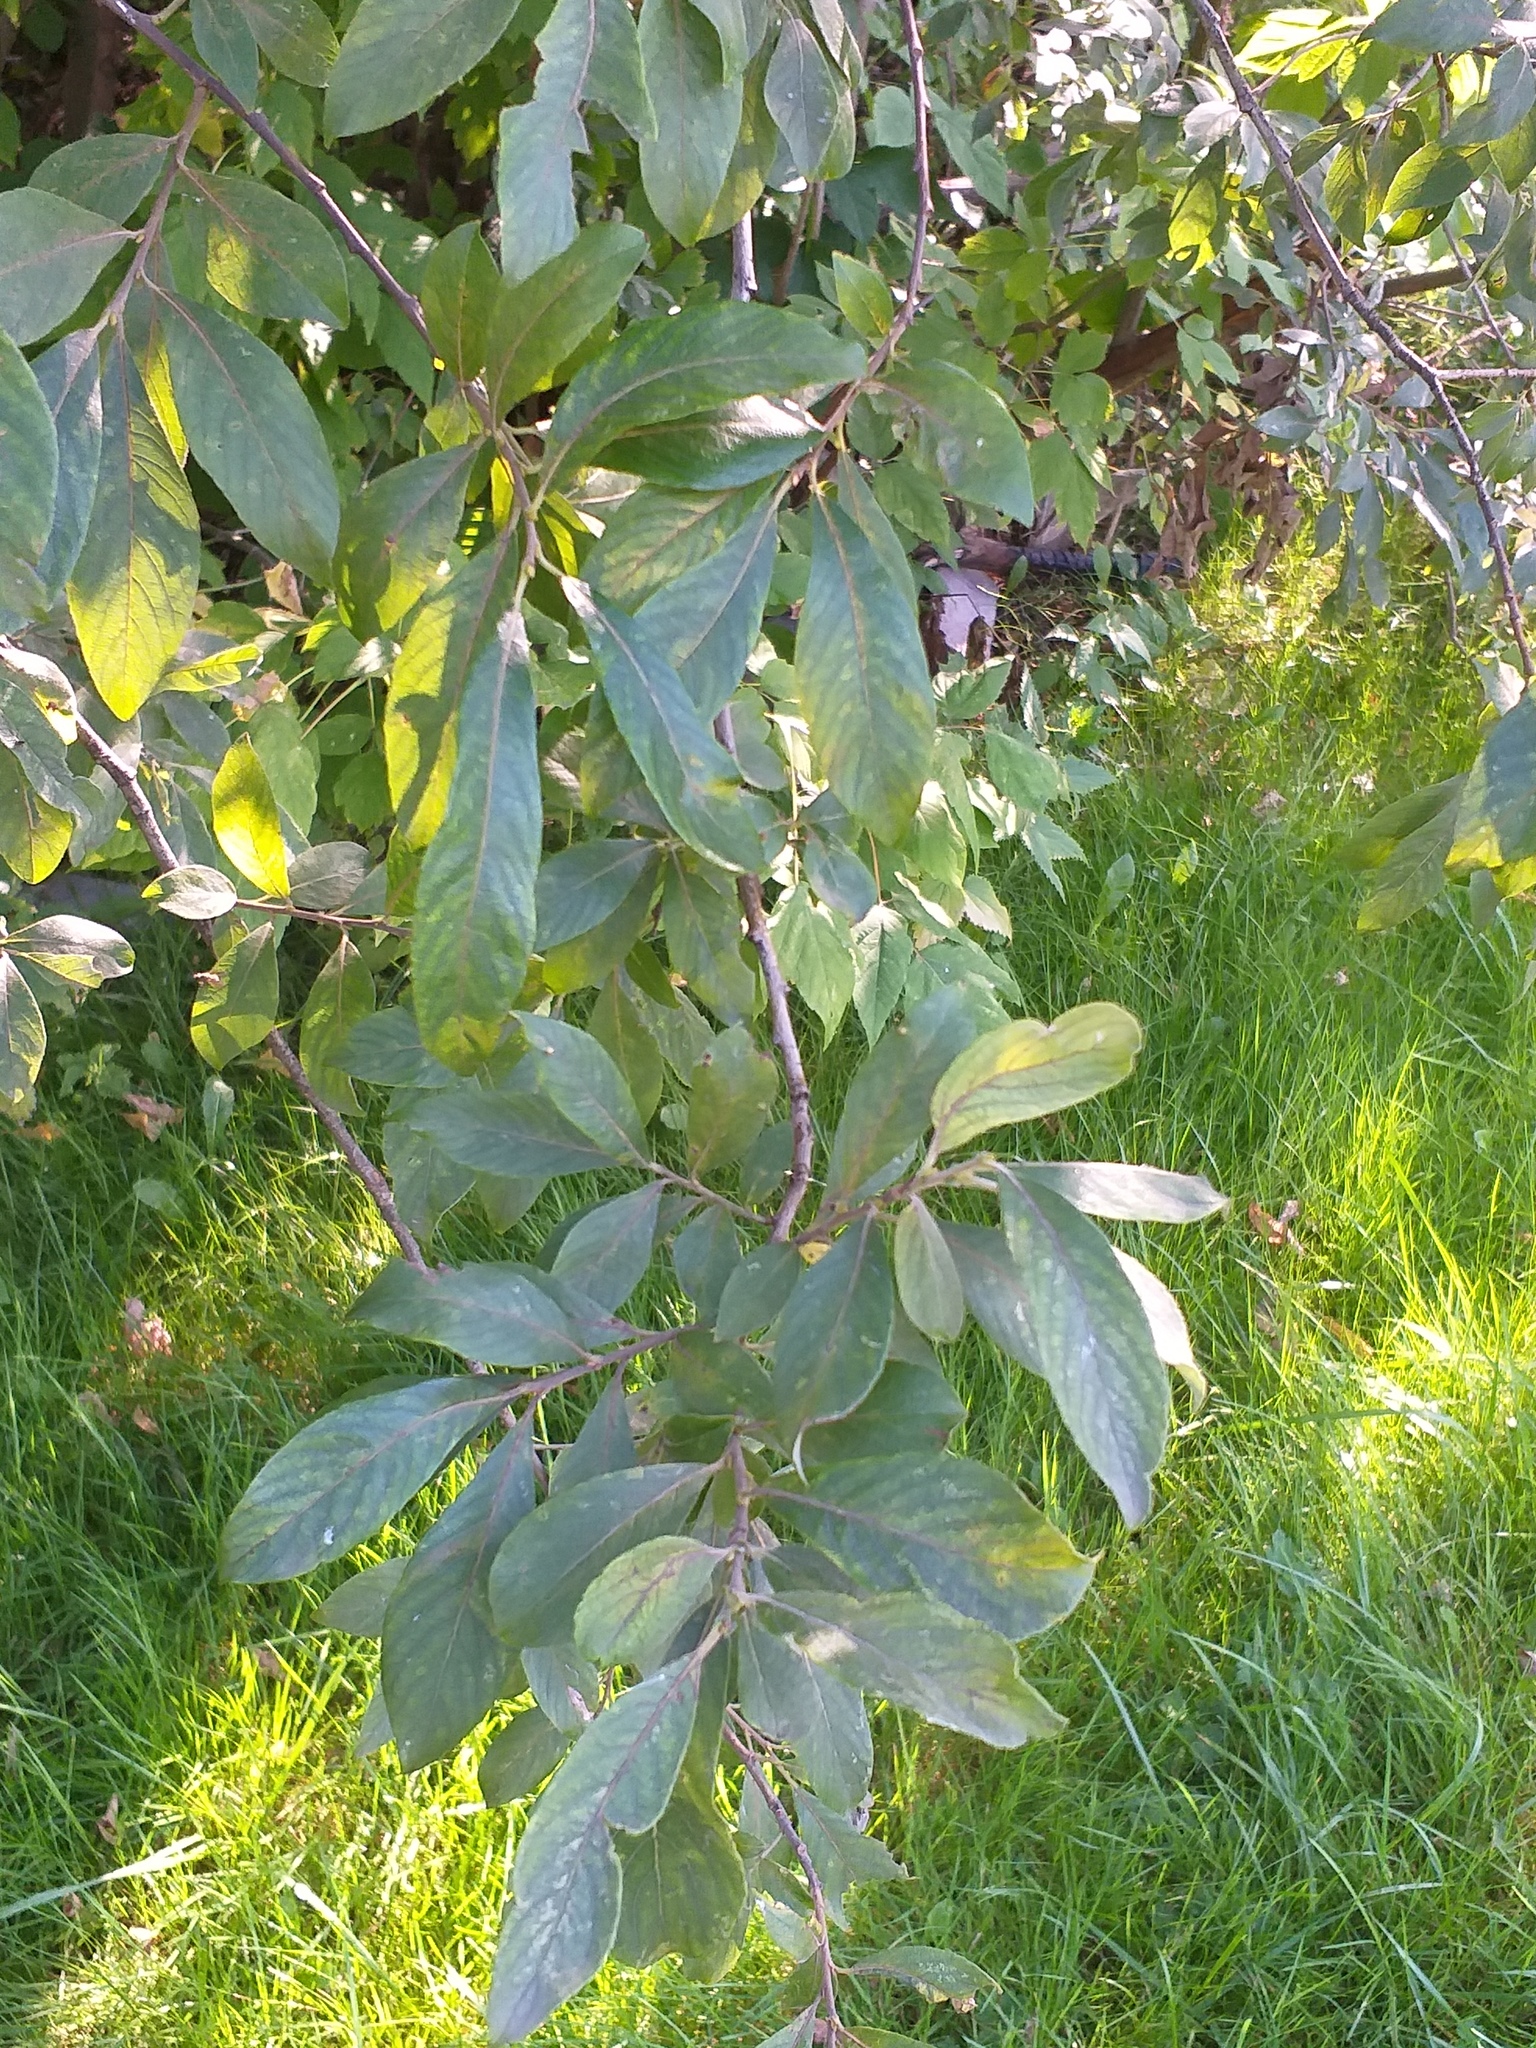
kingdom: Plantae
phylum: Tracheophyta
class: Magnoliopsida
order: Malpighiales
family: Salicaceae
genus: Salix
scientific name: Salix cinerea
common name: Common sallow
